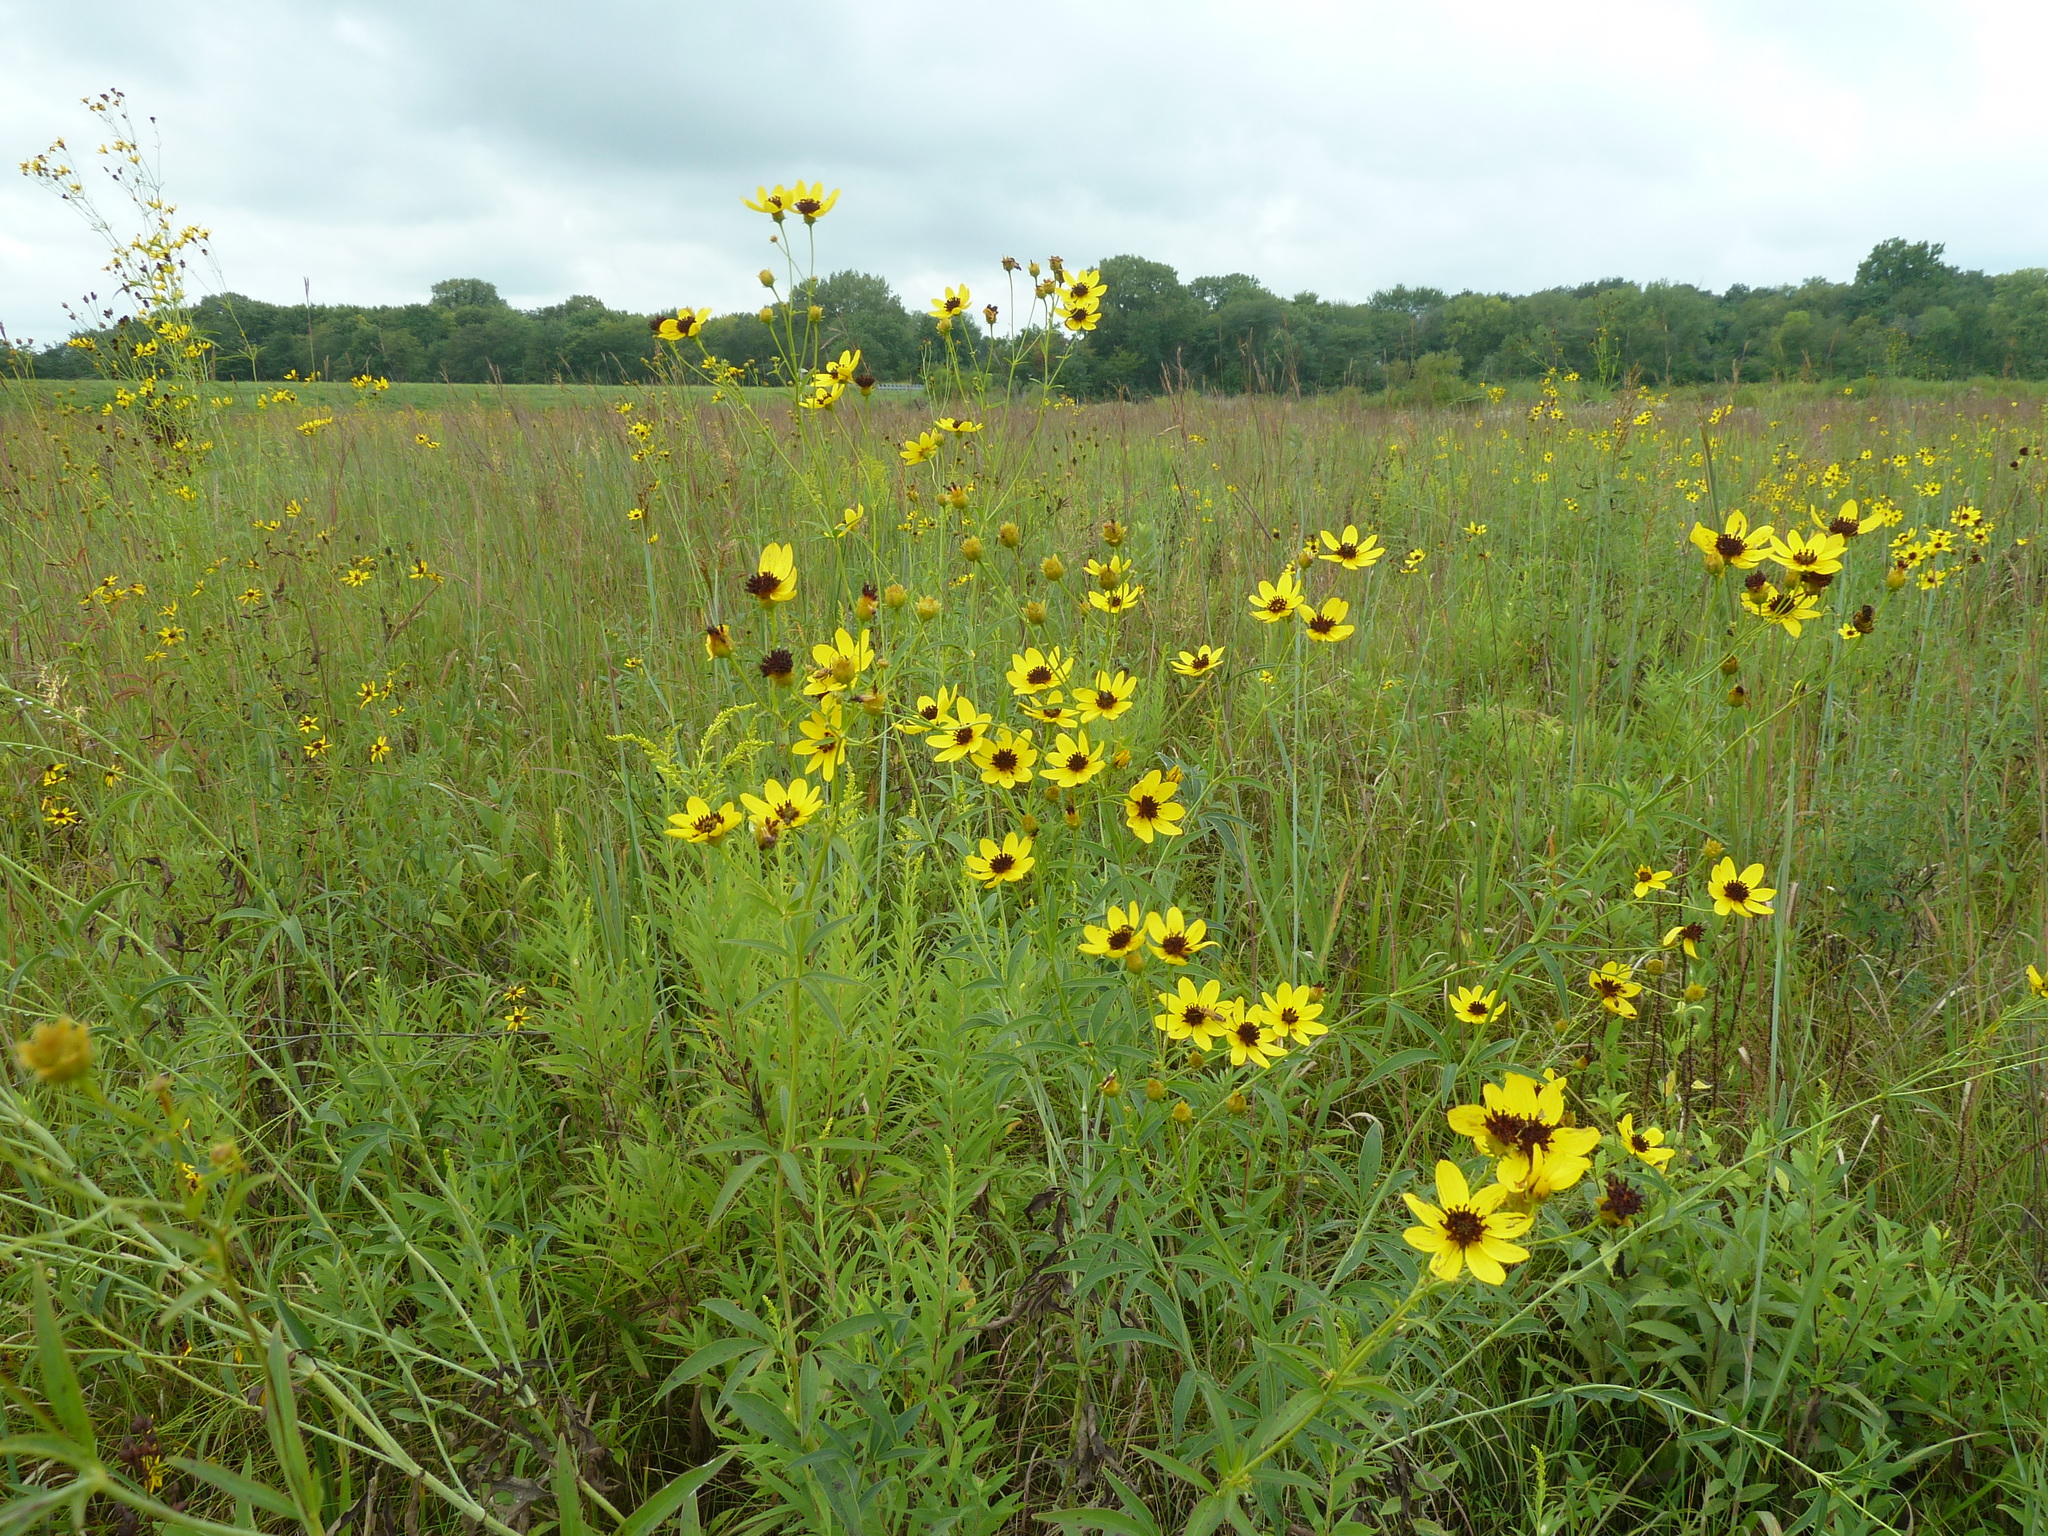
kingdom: Plantae
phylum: Tracheophyta
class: Magnoliopsida
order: Asterales
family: Asteraceae
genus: Coreopsis
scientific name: Coreopsis tripteris
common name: Tall coreopsis
